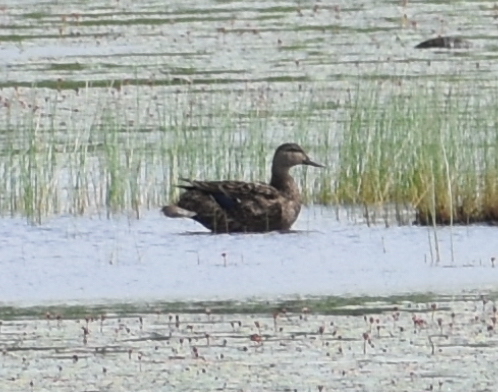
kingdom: Animalia
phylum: Chordata
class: Aves
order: Anseriformes
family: Anatidae
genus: Anas
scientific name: Anas rubripes
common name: American black duck
